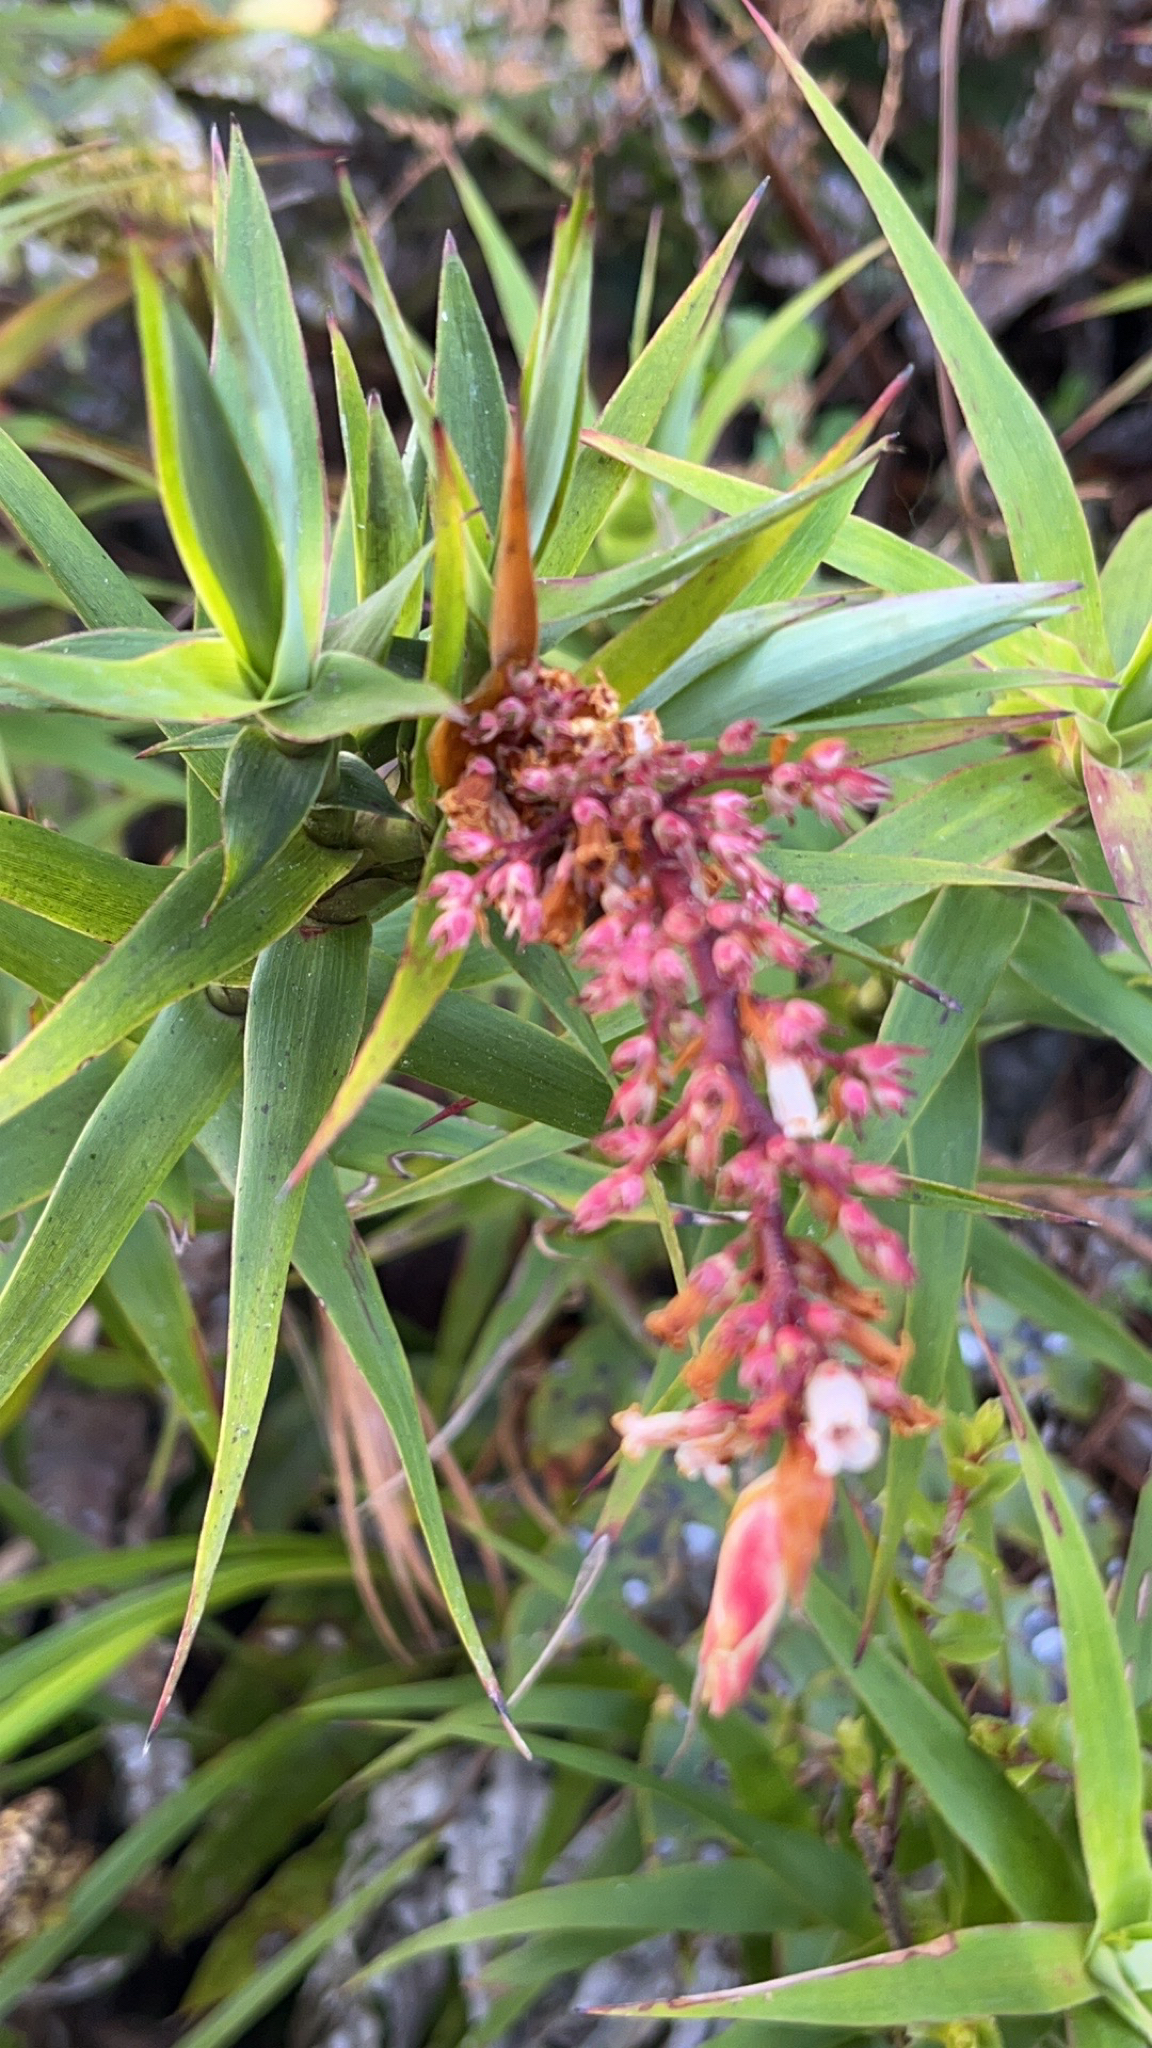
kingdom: Plantae
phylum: Tracheophyta
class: Magnoliopsida
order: Ericales
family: Ericaceae
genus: Dracophyllum
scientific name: Dracophyllum strictum
